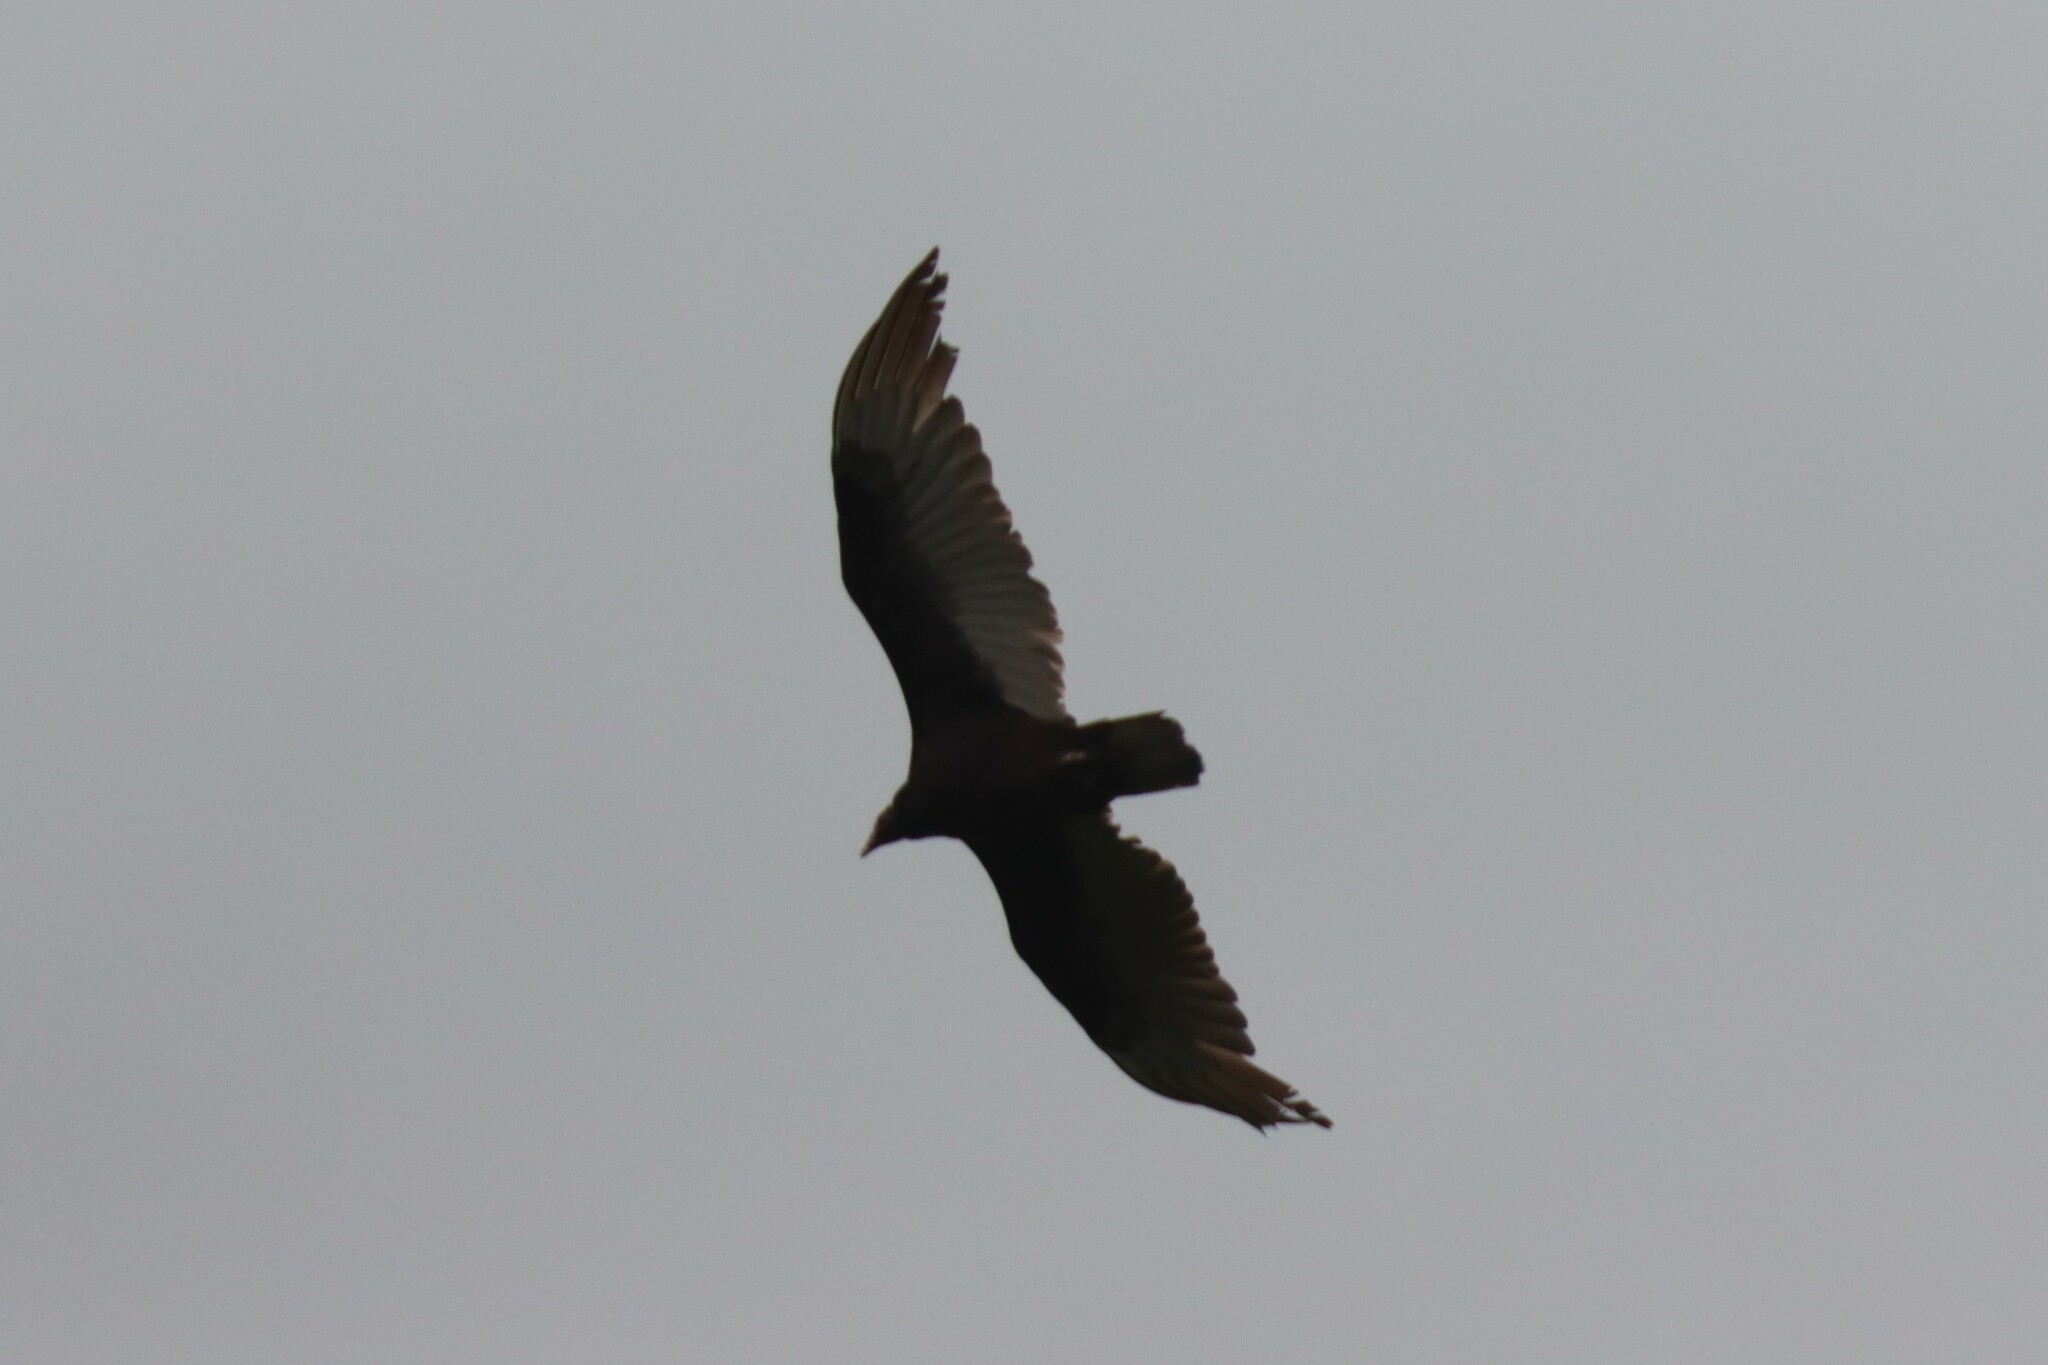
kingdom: Animalia
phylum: Chordata
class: Aves
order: Accipitriformes
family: Cathartidae
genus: Cathartes
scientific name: Cathartes aura
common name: Turkey vulture
